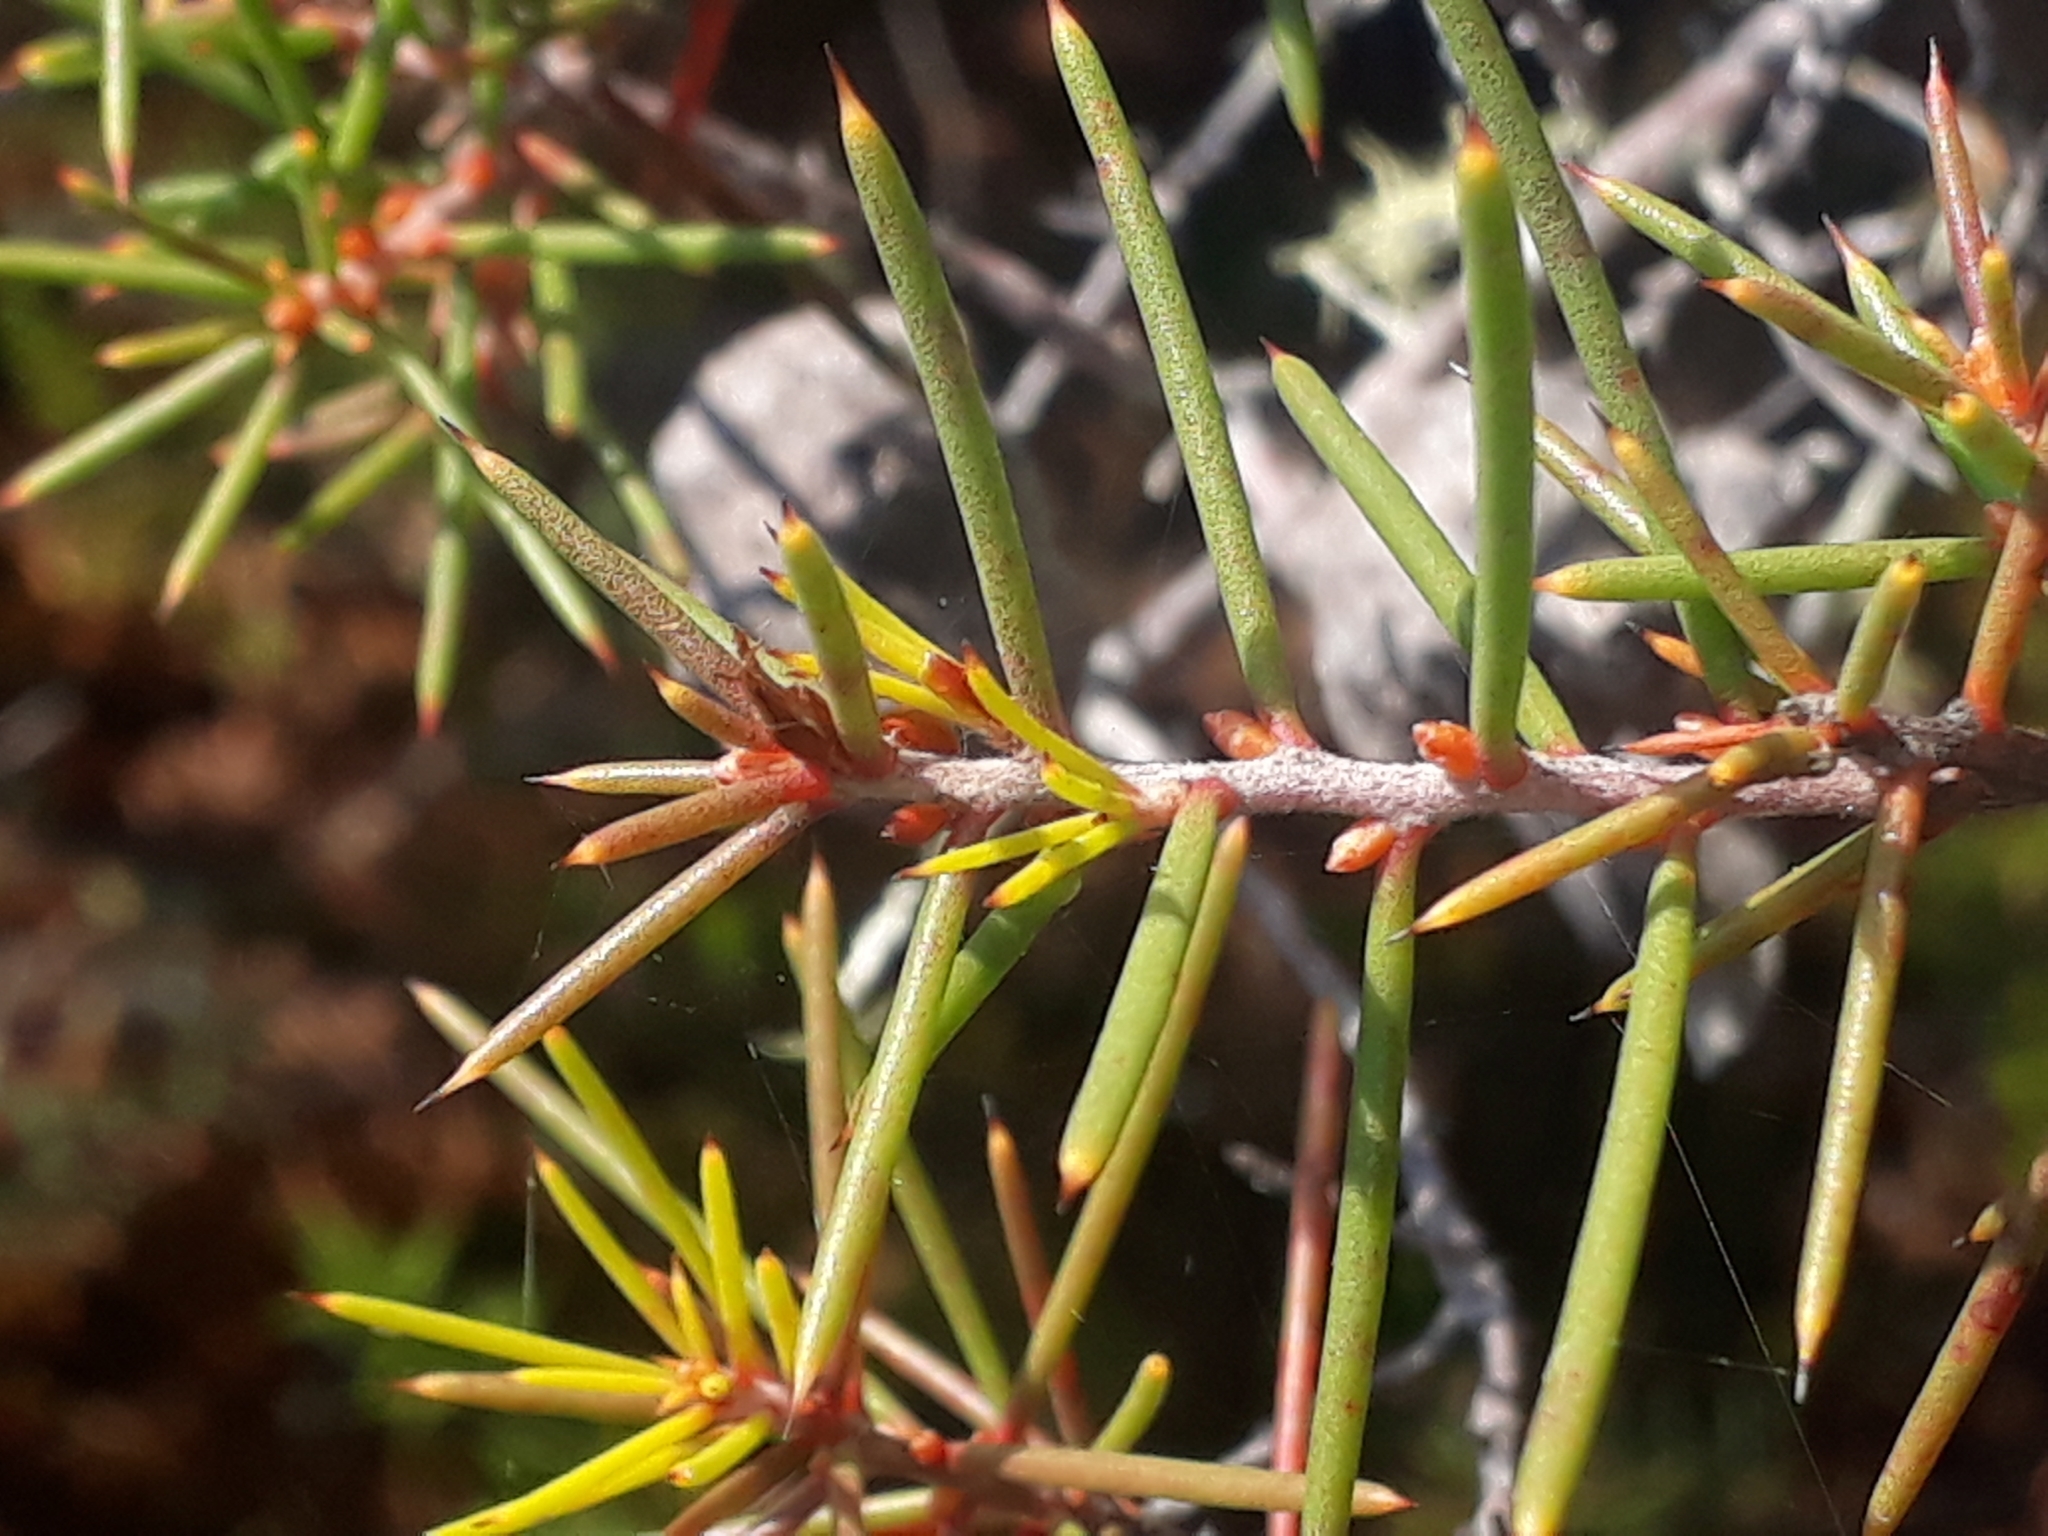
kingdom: Plantae
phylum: Tracheophyta
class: Magnoliopsida
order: Proteales
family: Proteaceae
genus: Hakea
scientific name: Hakea sericea
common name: Needle bush
